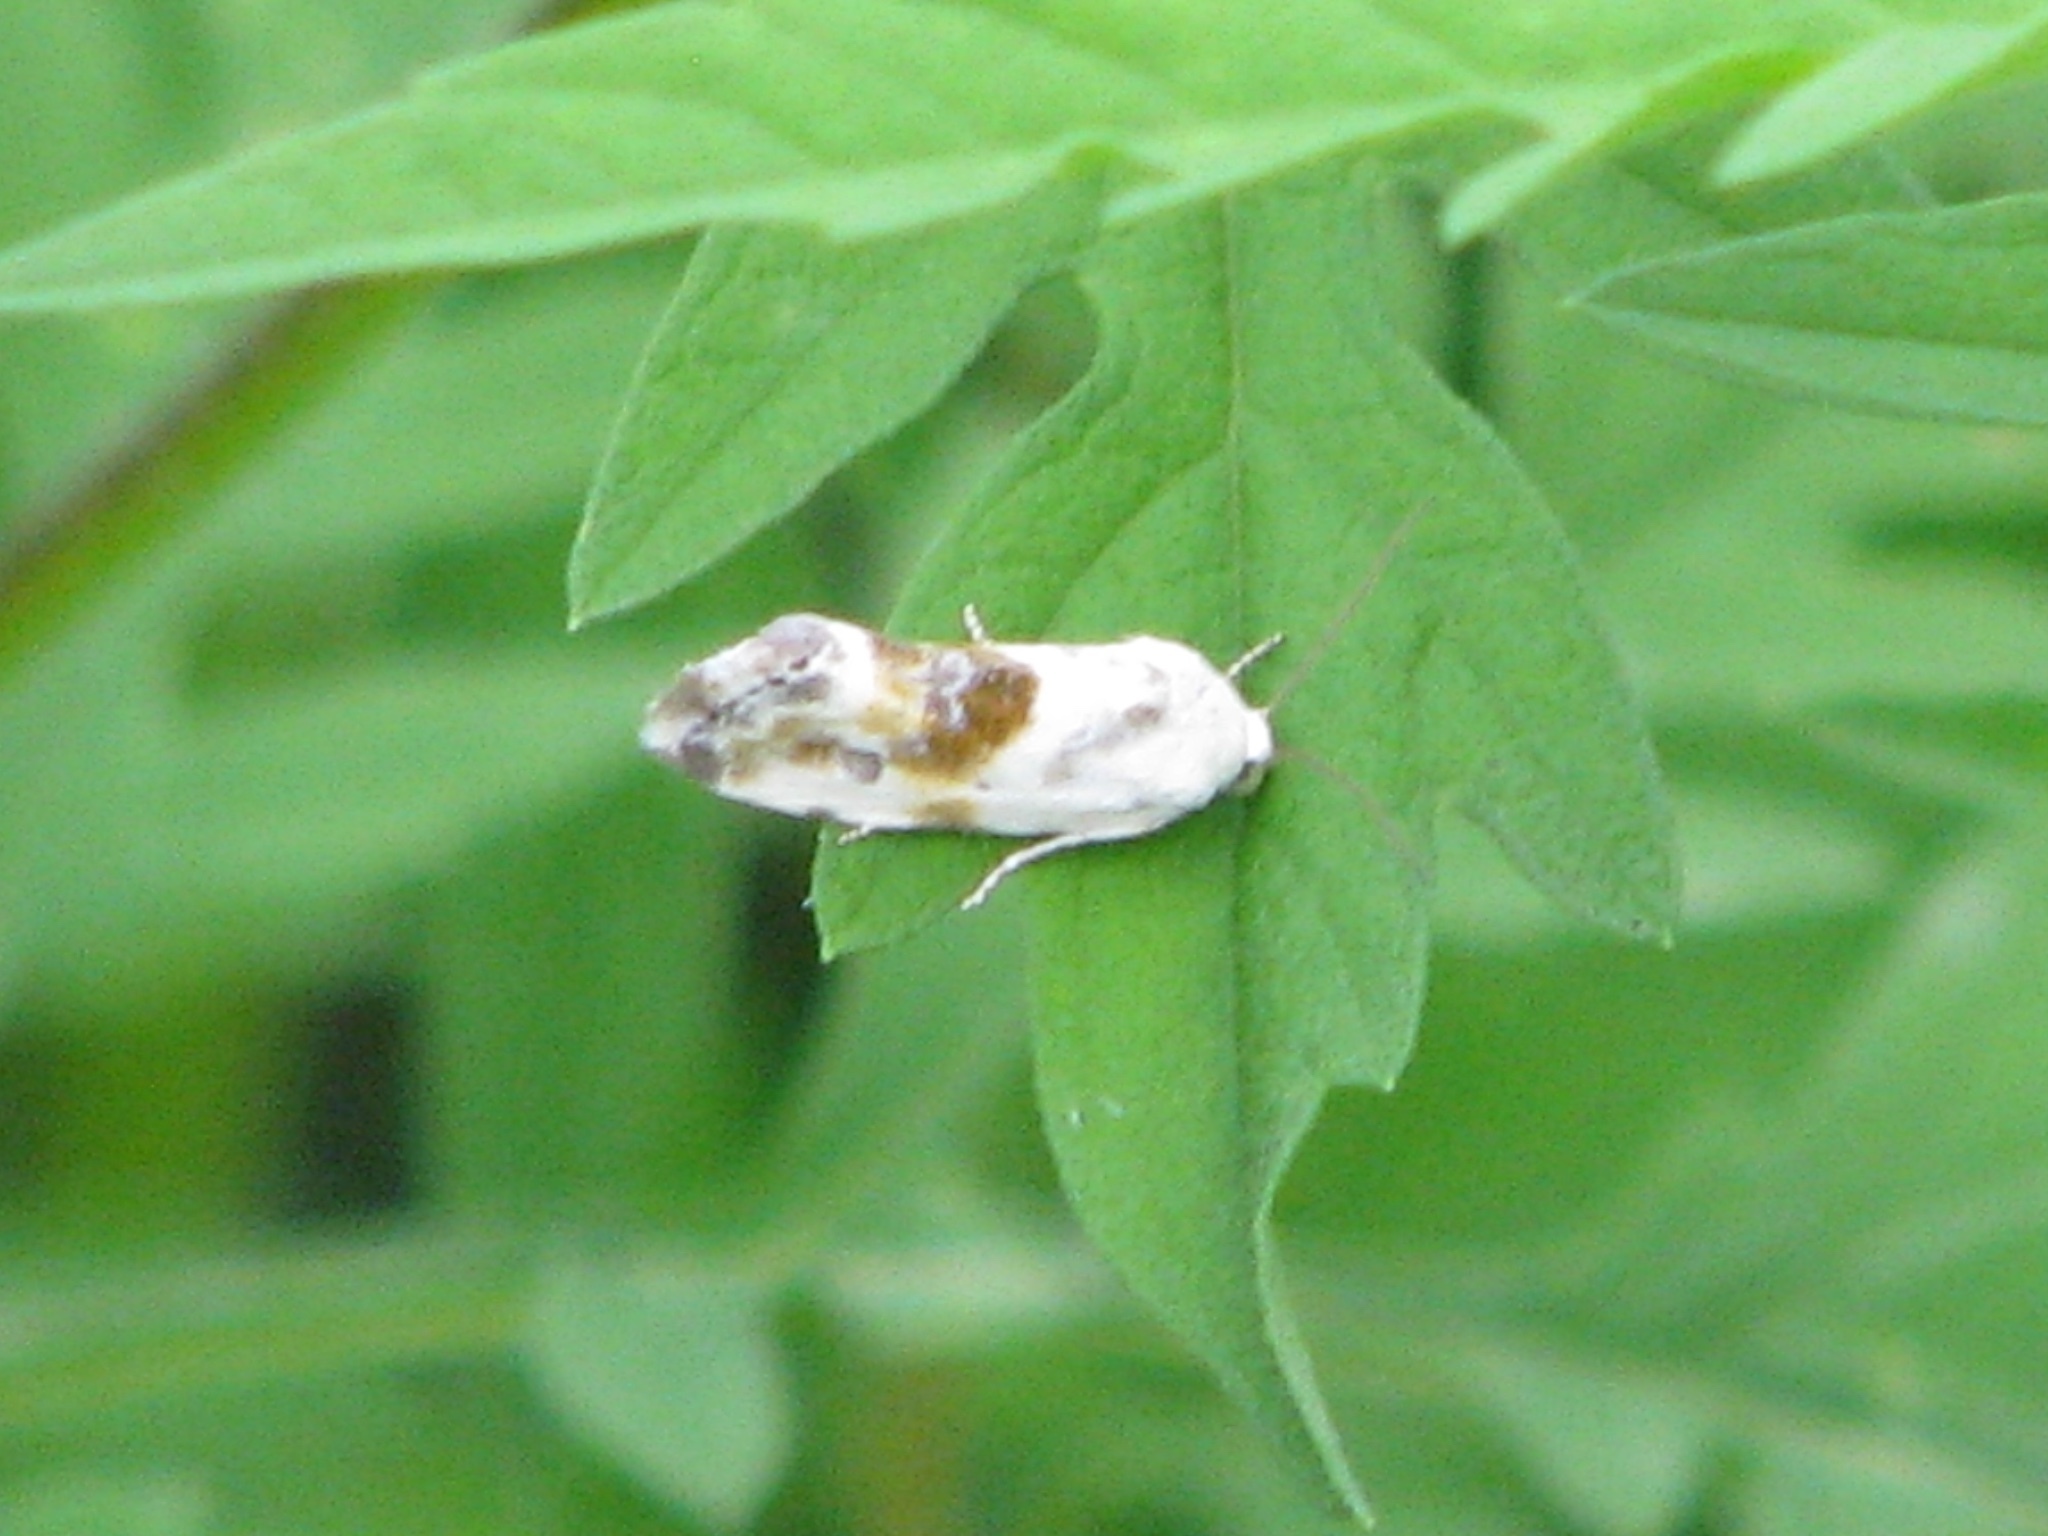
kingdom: Animalia
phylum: Arthropoda
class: Insecta
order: Lepidoptera
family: Noctuidae
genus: Acontia
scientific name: Acontia candefacta
